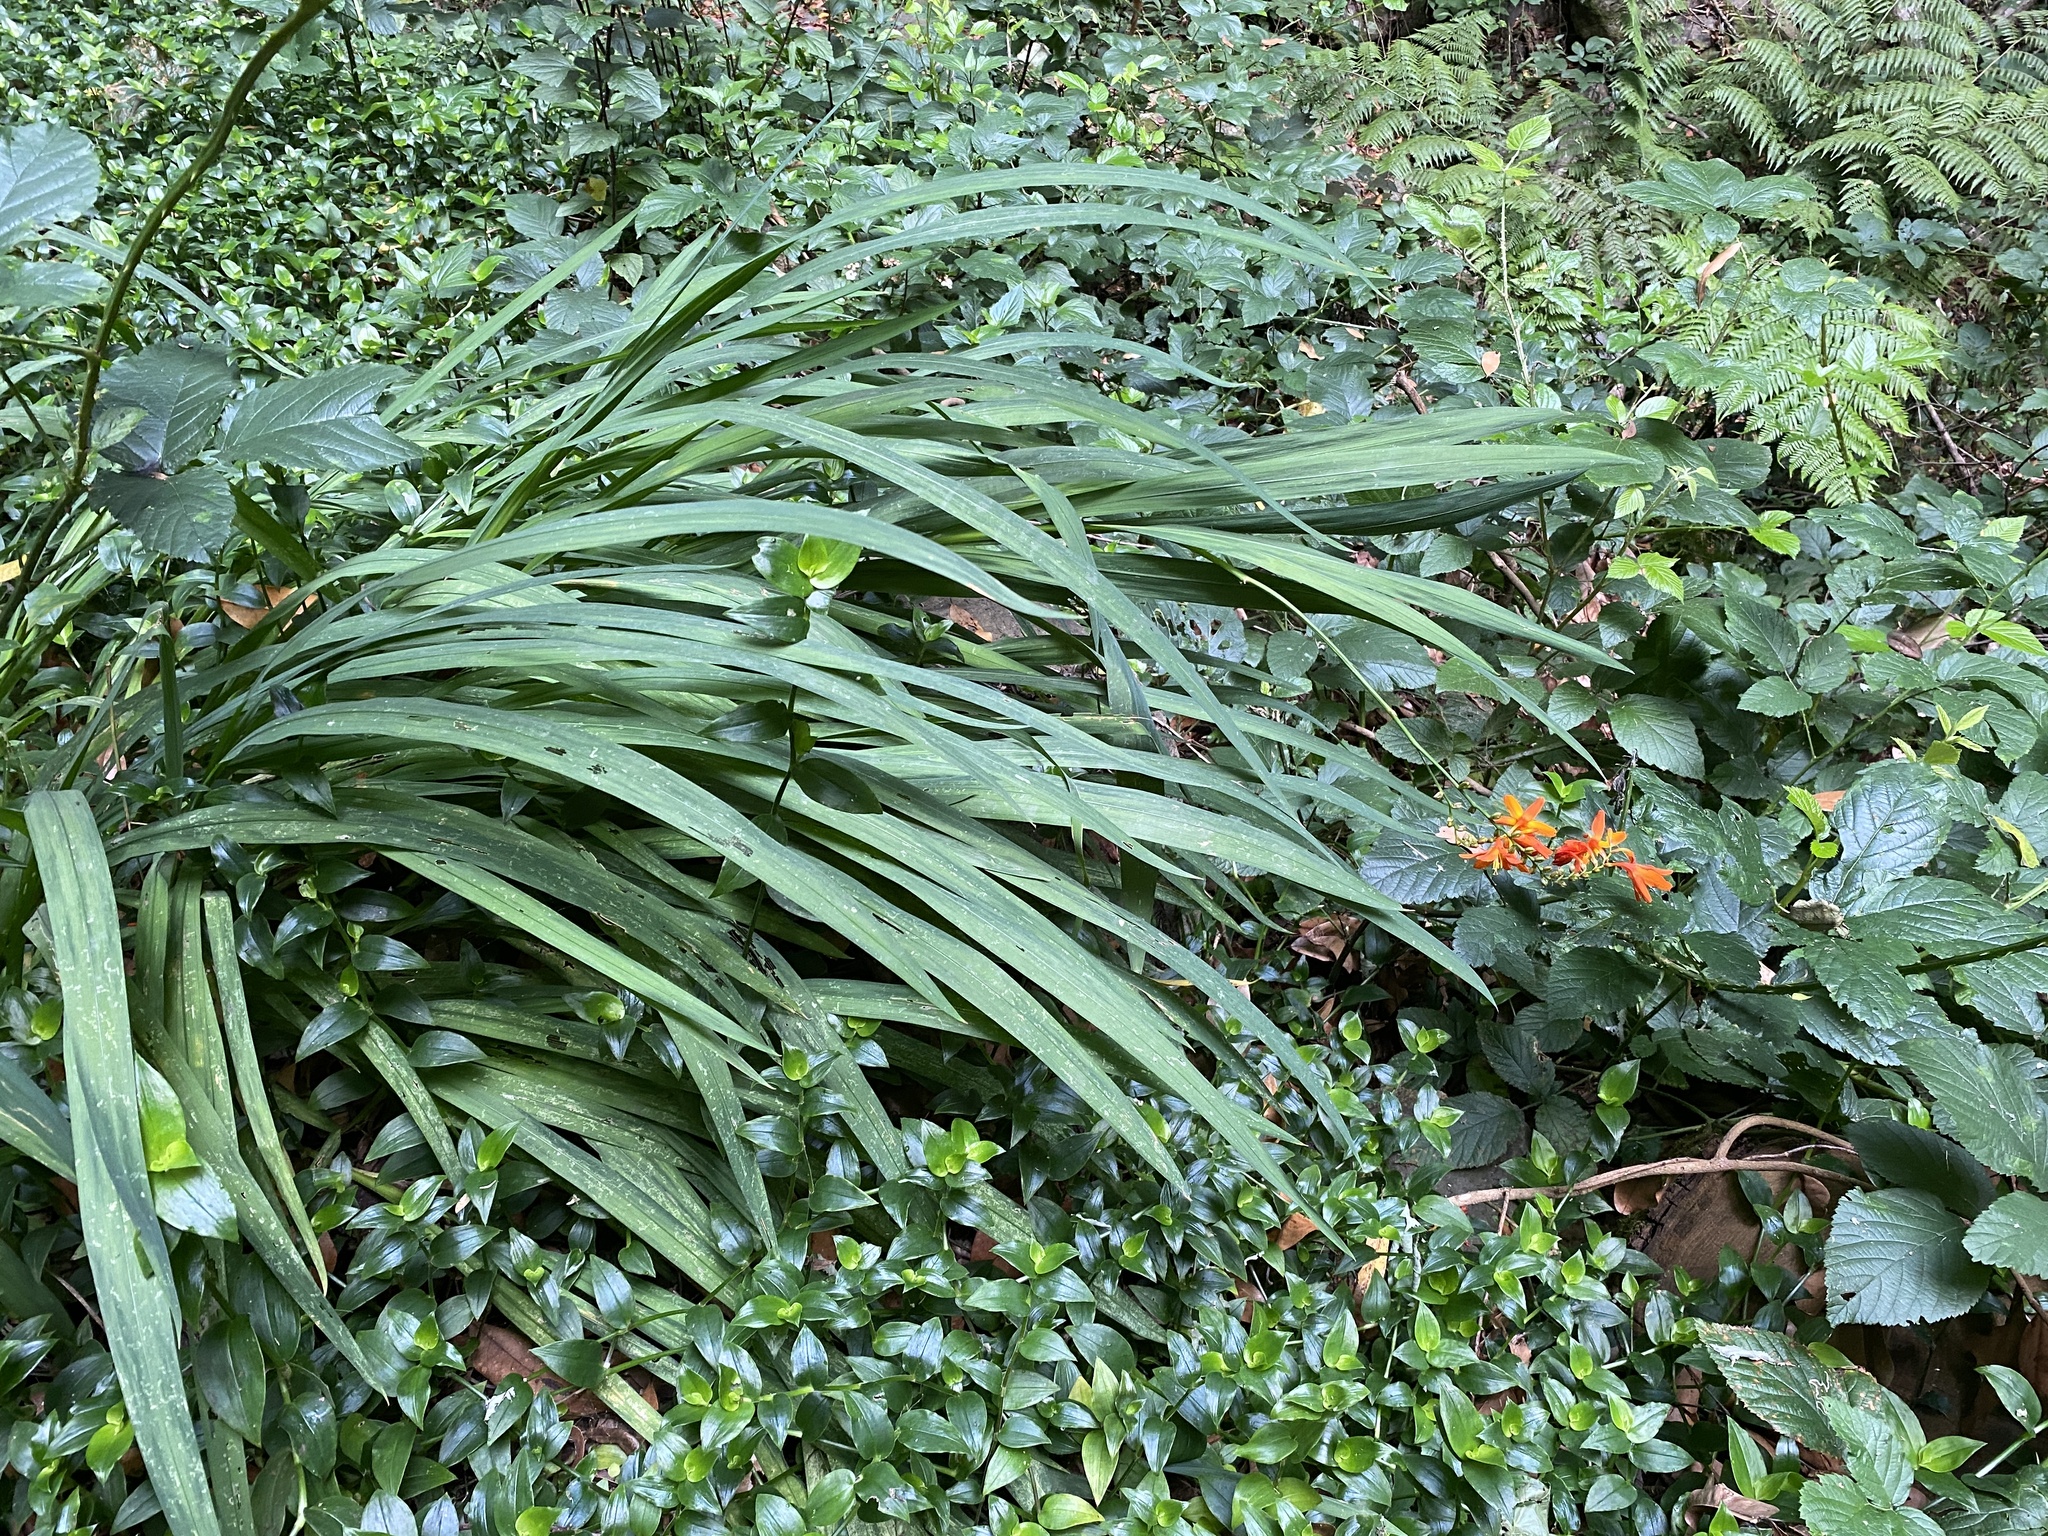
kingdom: Plantae
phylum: Tracheophyta
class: Liliopsida
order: Asparagales
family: Iridaceae
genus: Crocosmia
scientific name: Crocosmia crocosmiiflora
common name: Montbretia
